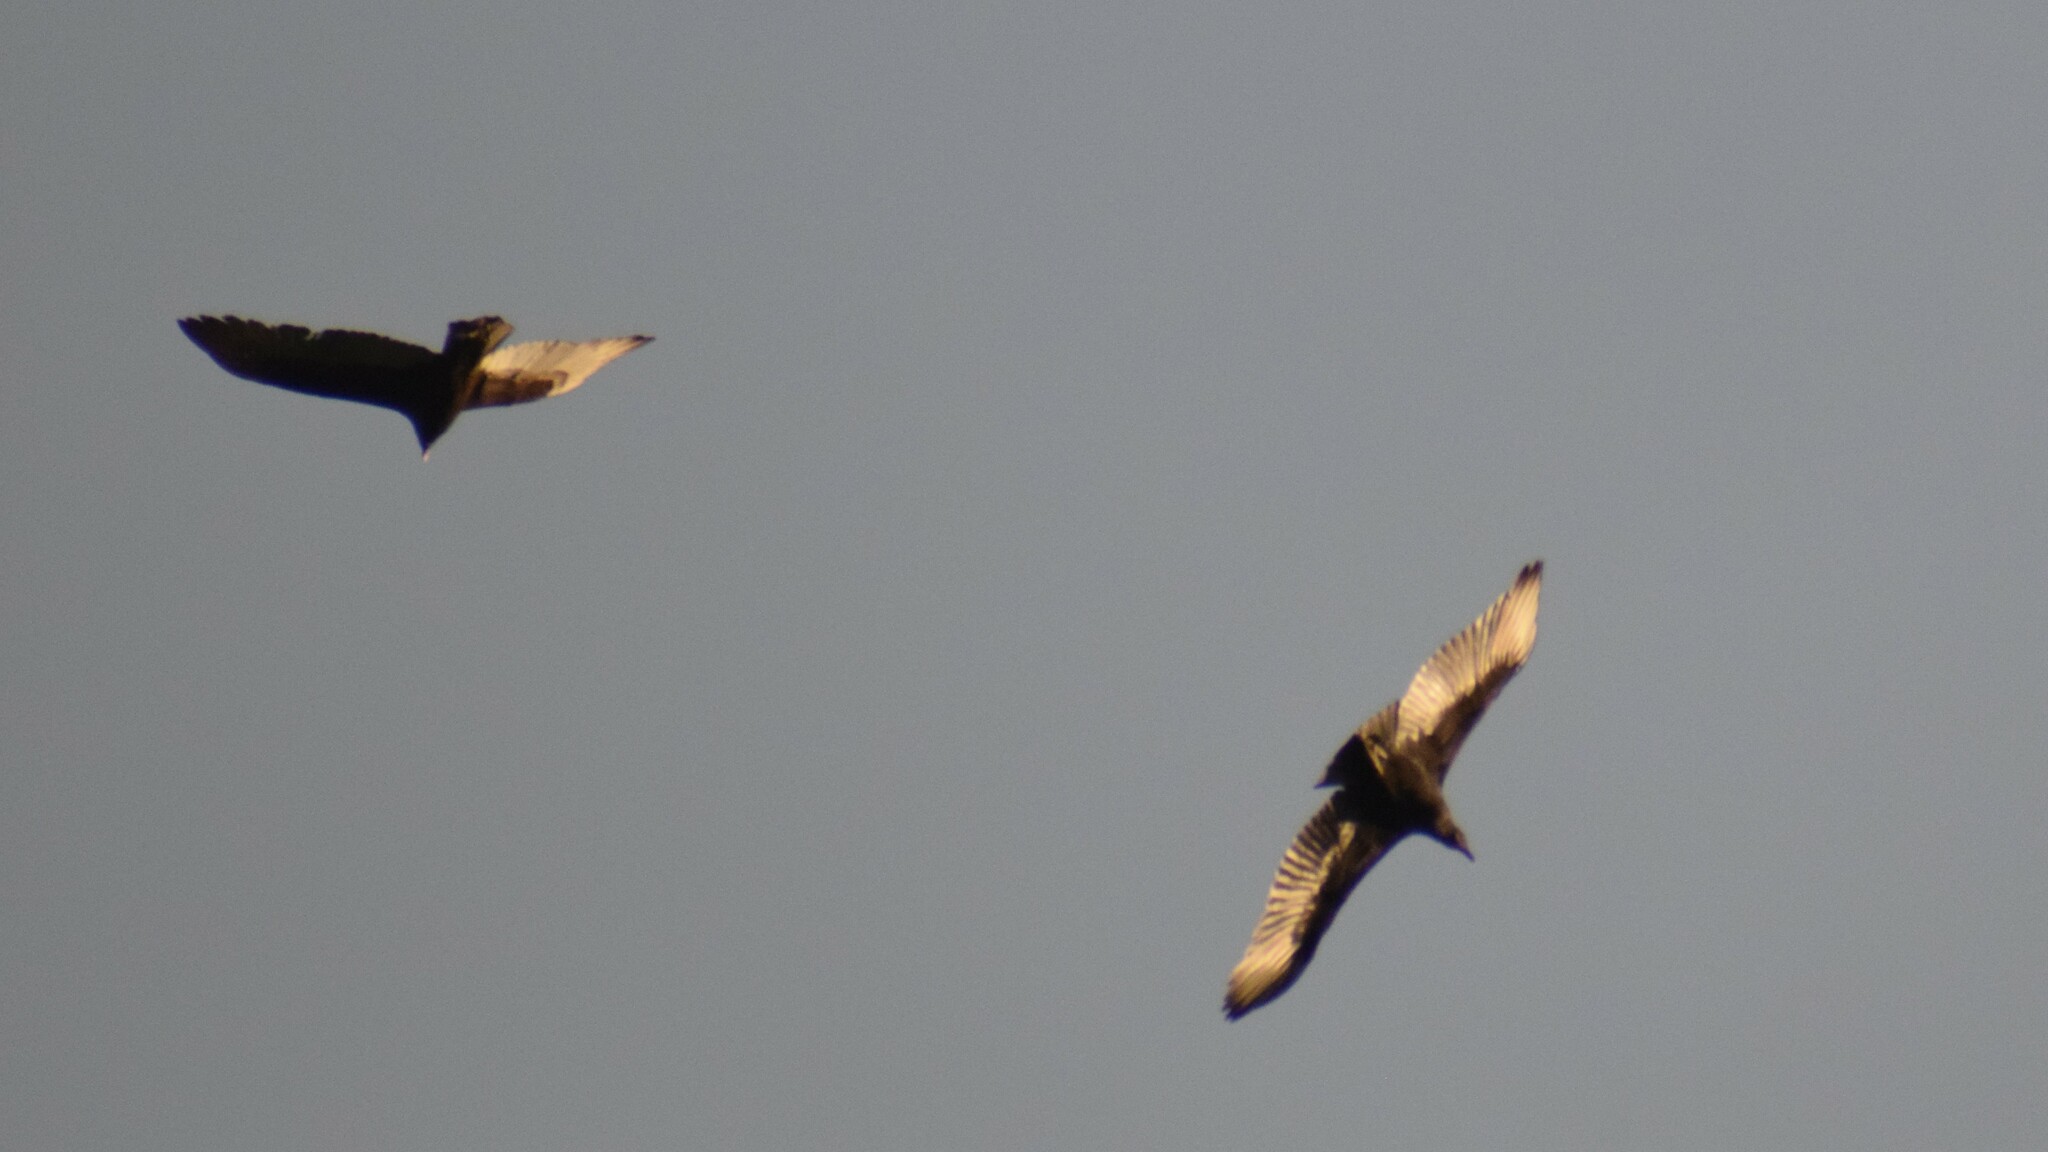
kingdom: Animalia
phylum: Chordata
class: Aves
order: Accipitriformes
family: Cathartidae
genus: Cathartes
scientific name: Cathartes aura
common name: Turkey vulture
